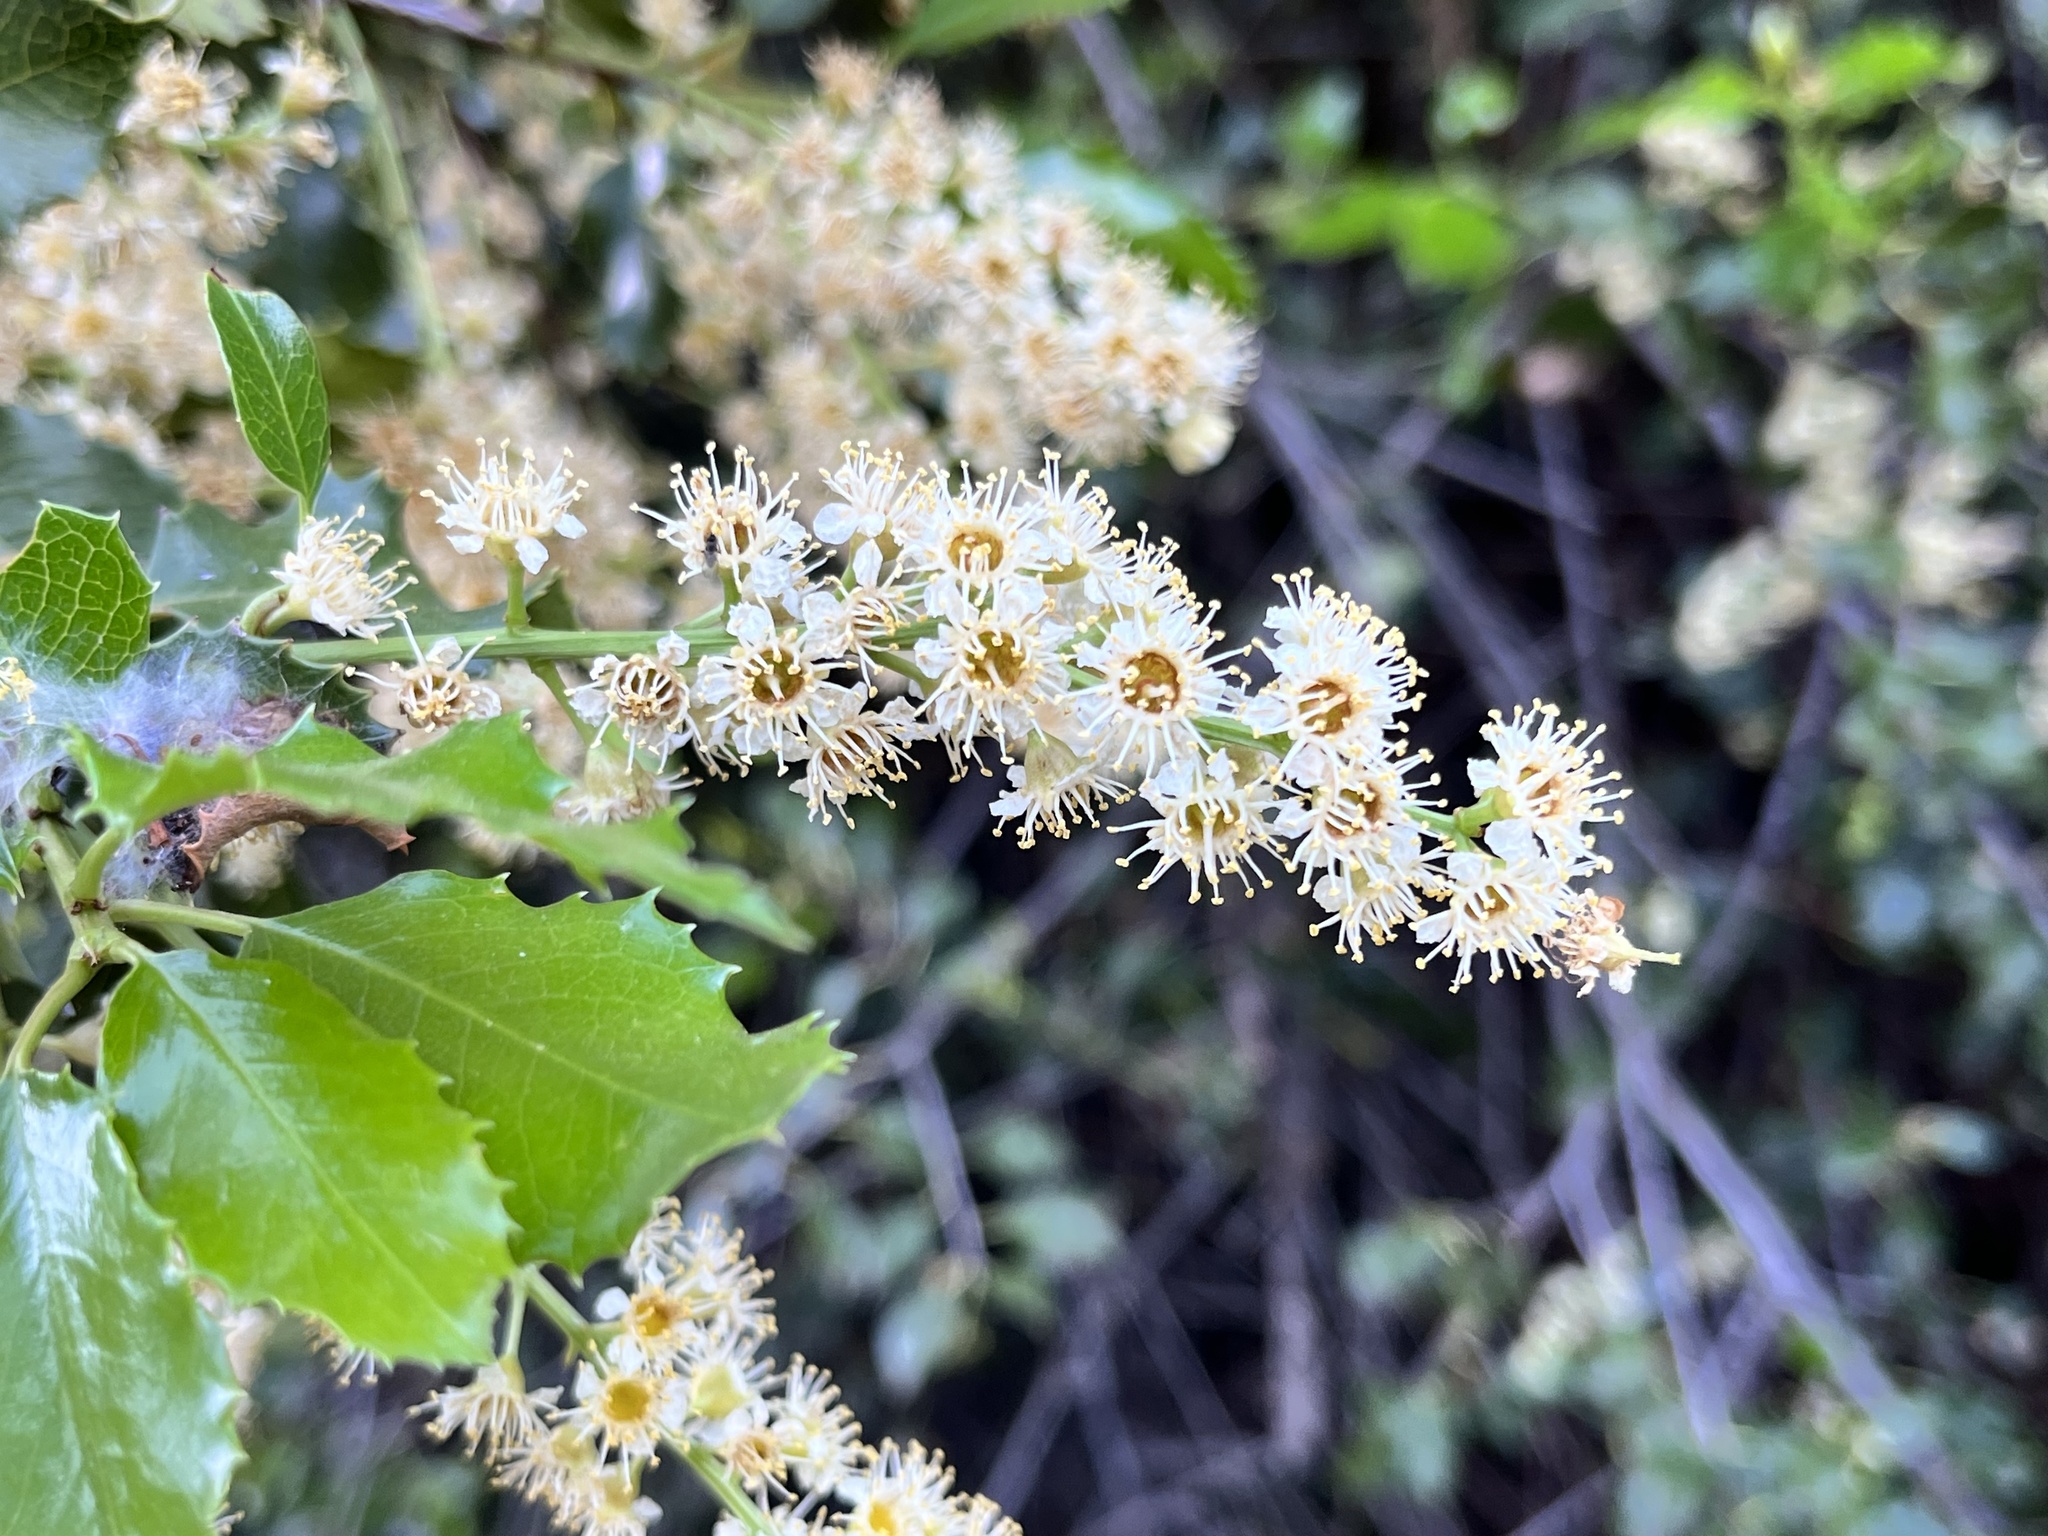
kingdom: Plantae
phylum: Tracheophyta
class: Magnoliopsida
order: Rosales
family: Rosaceae
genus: Prunus
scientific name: Prunus ilicifolia
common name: Hollyleaf cherry
